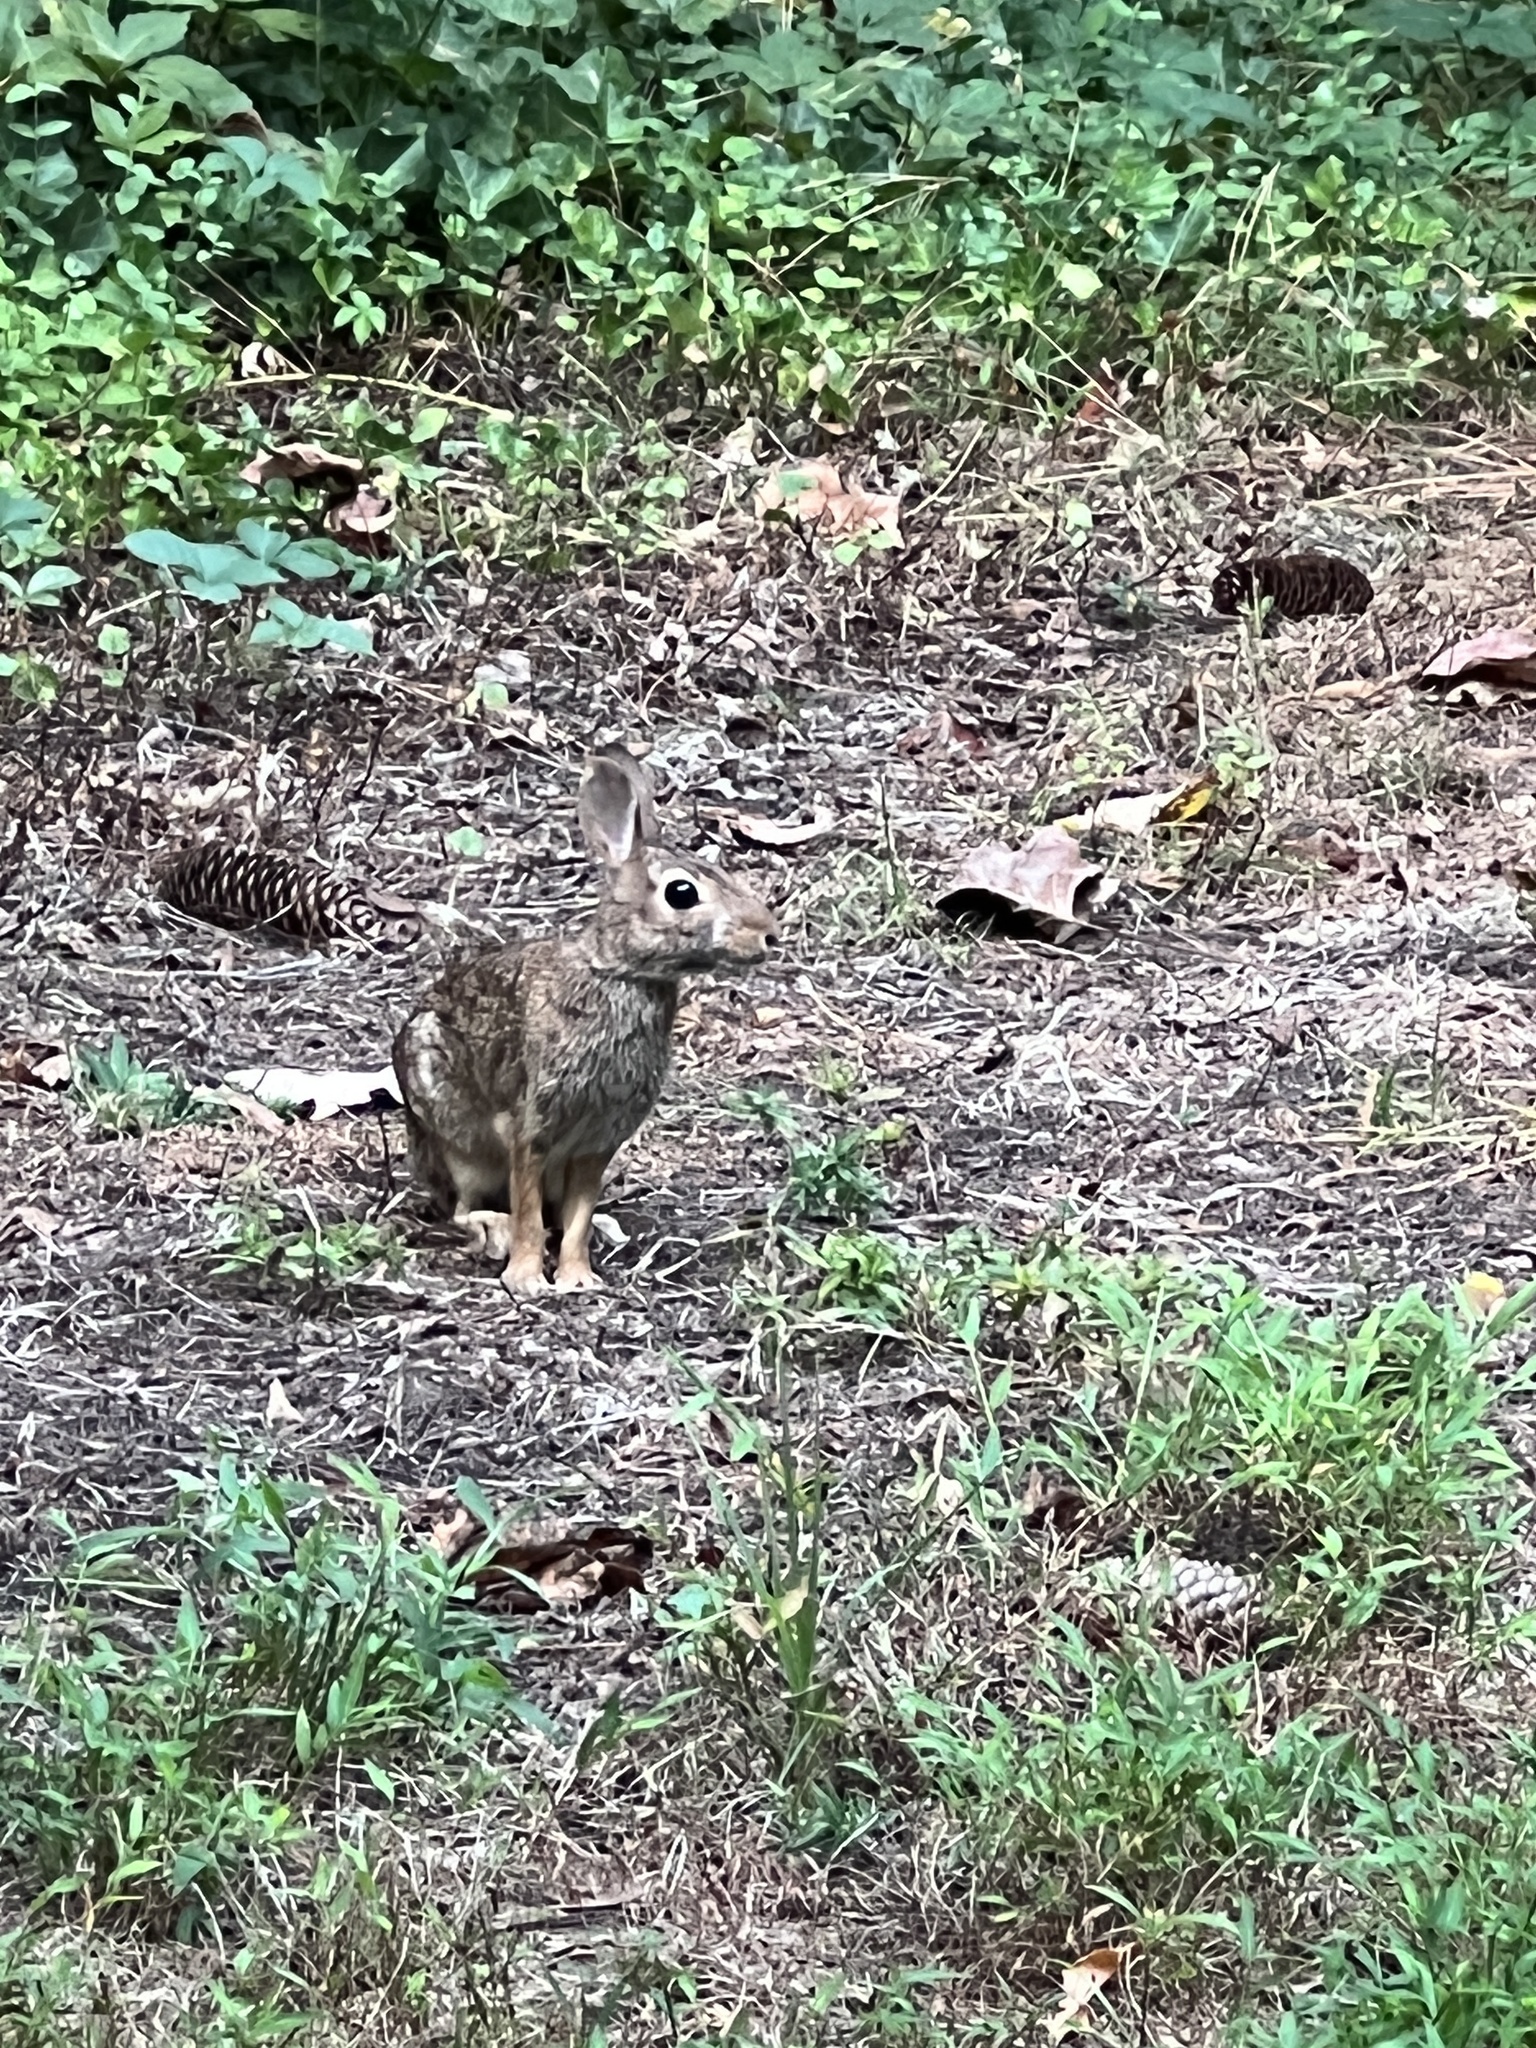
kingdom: Animalia
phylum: Chordata
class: Mammalia
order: Lagomorpha
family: Leporidae
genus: Sylvilagus
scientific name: Sylvilagus floridanus
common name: Eastern cottontail
